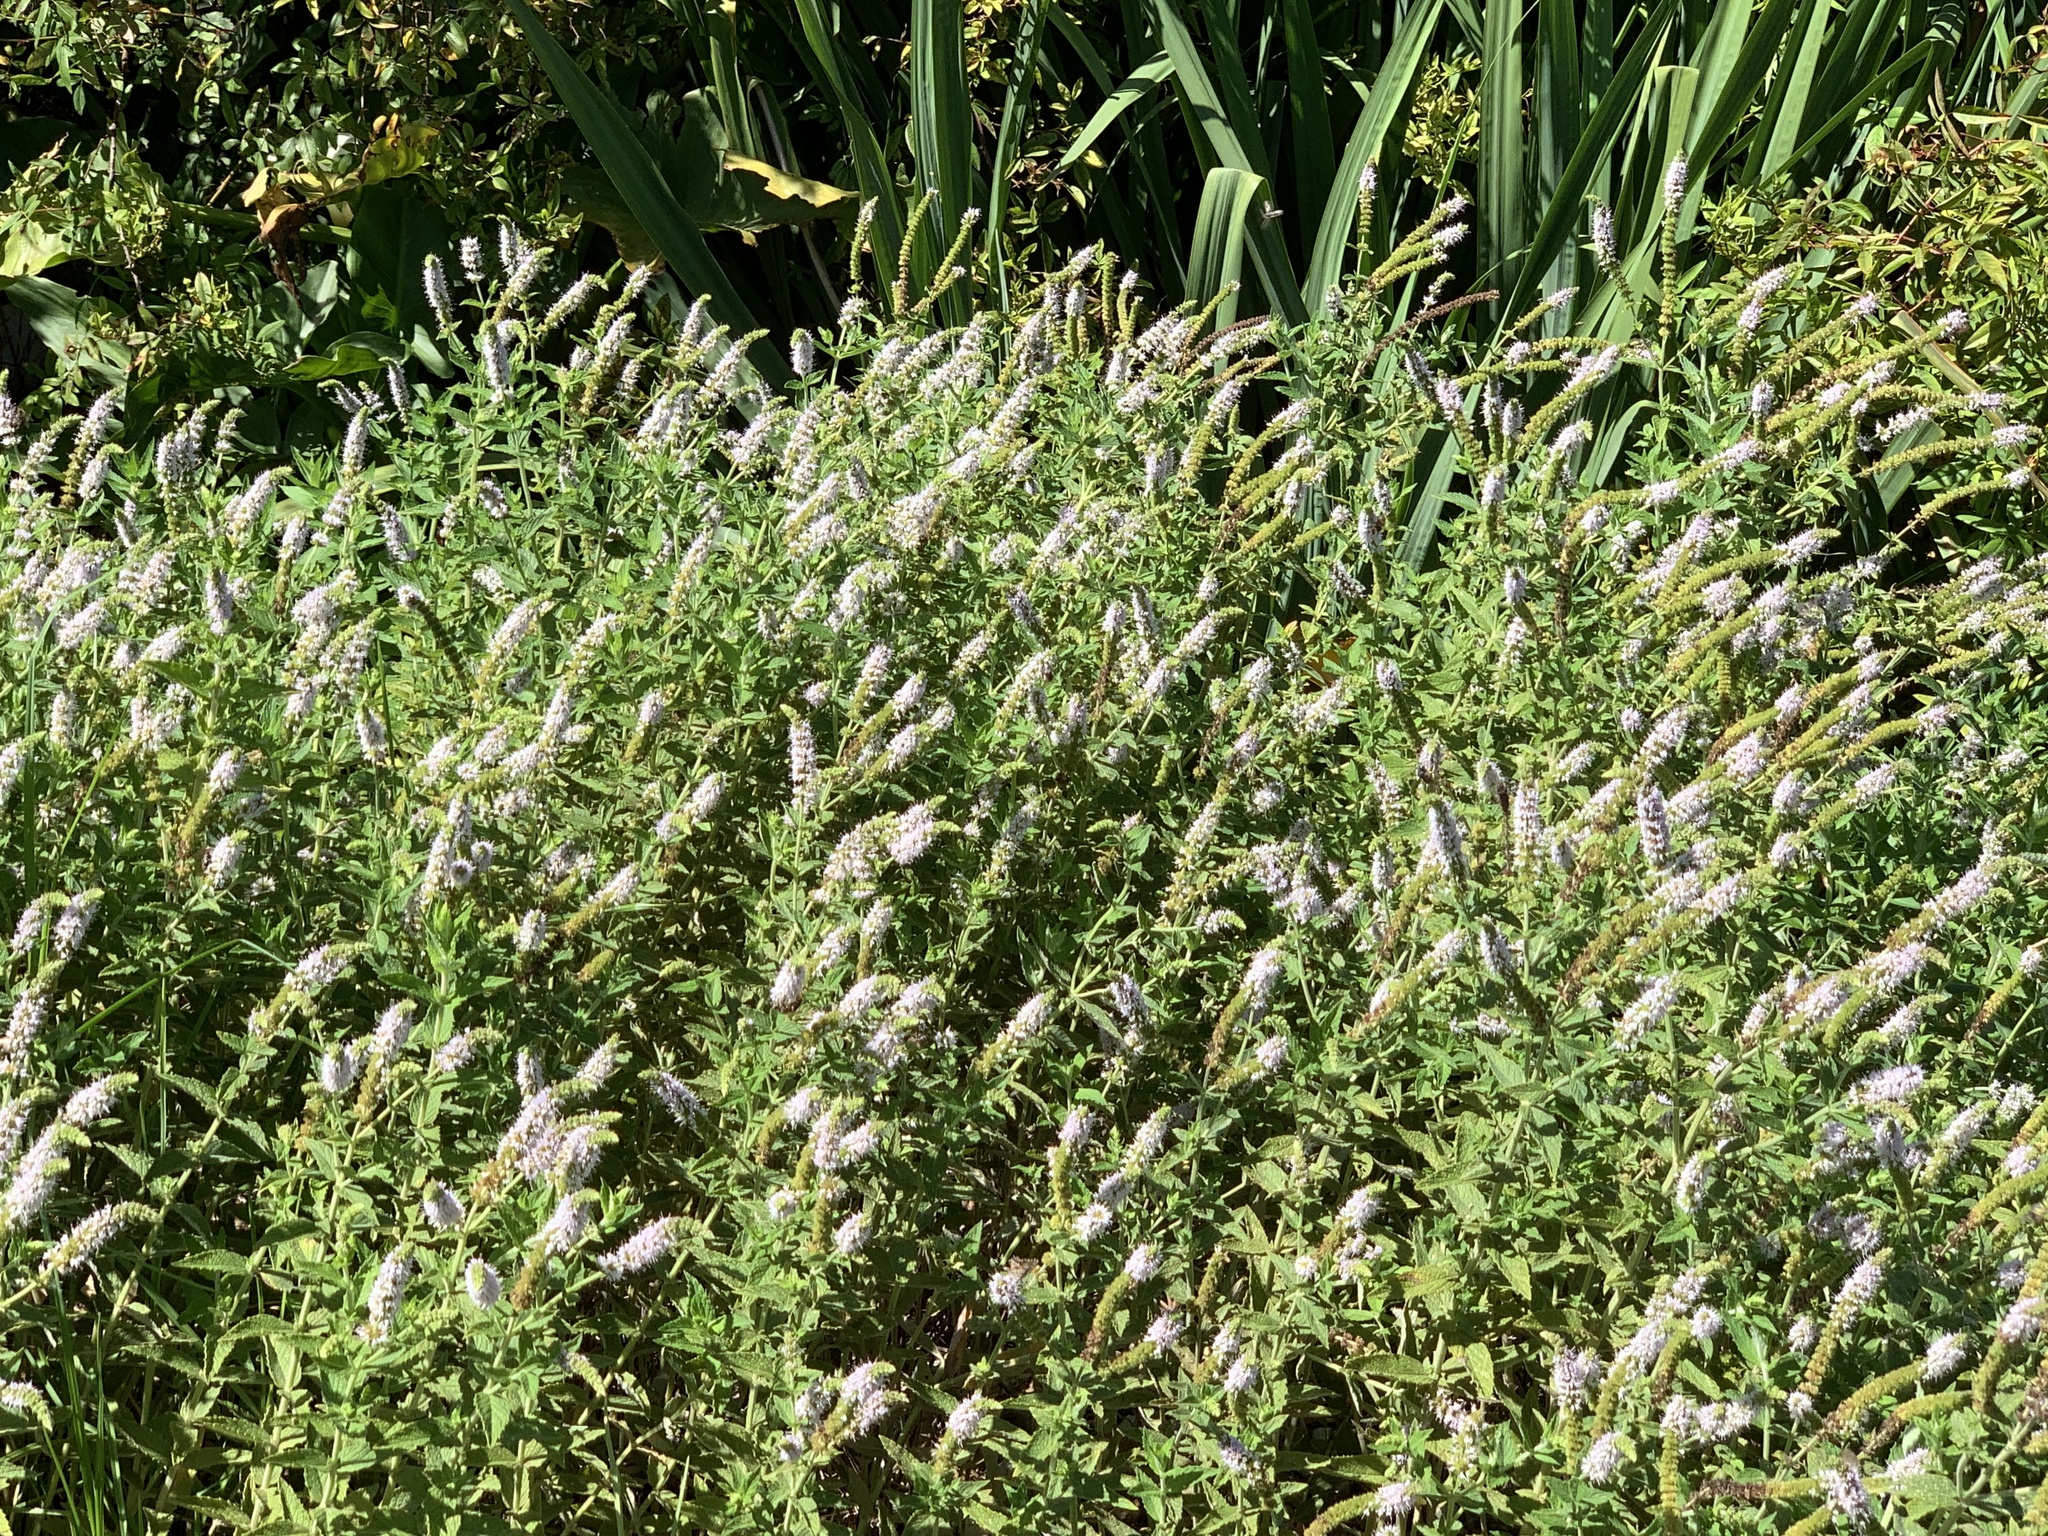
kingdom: Plantae
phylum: Tracheophyta
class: Magnoliopsida
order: Lamiales
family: Lamiaceae
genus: Mentha
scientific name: Mentha longifolia
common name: Horse mint
